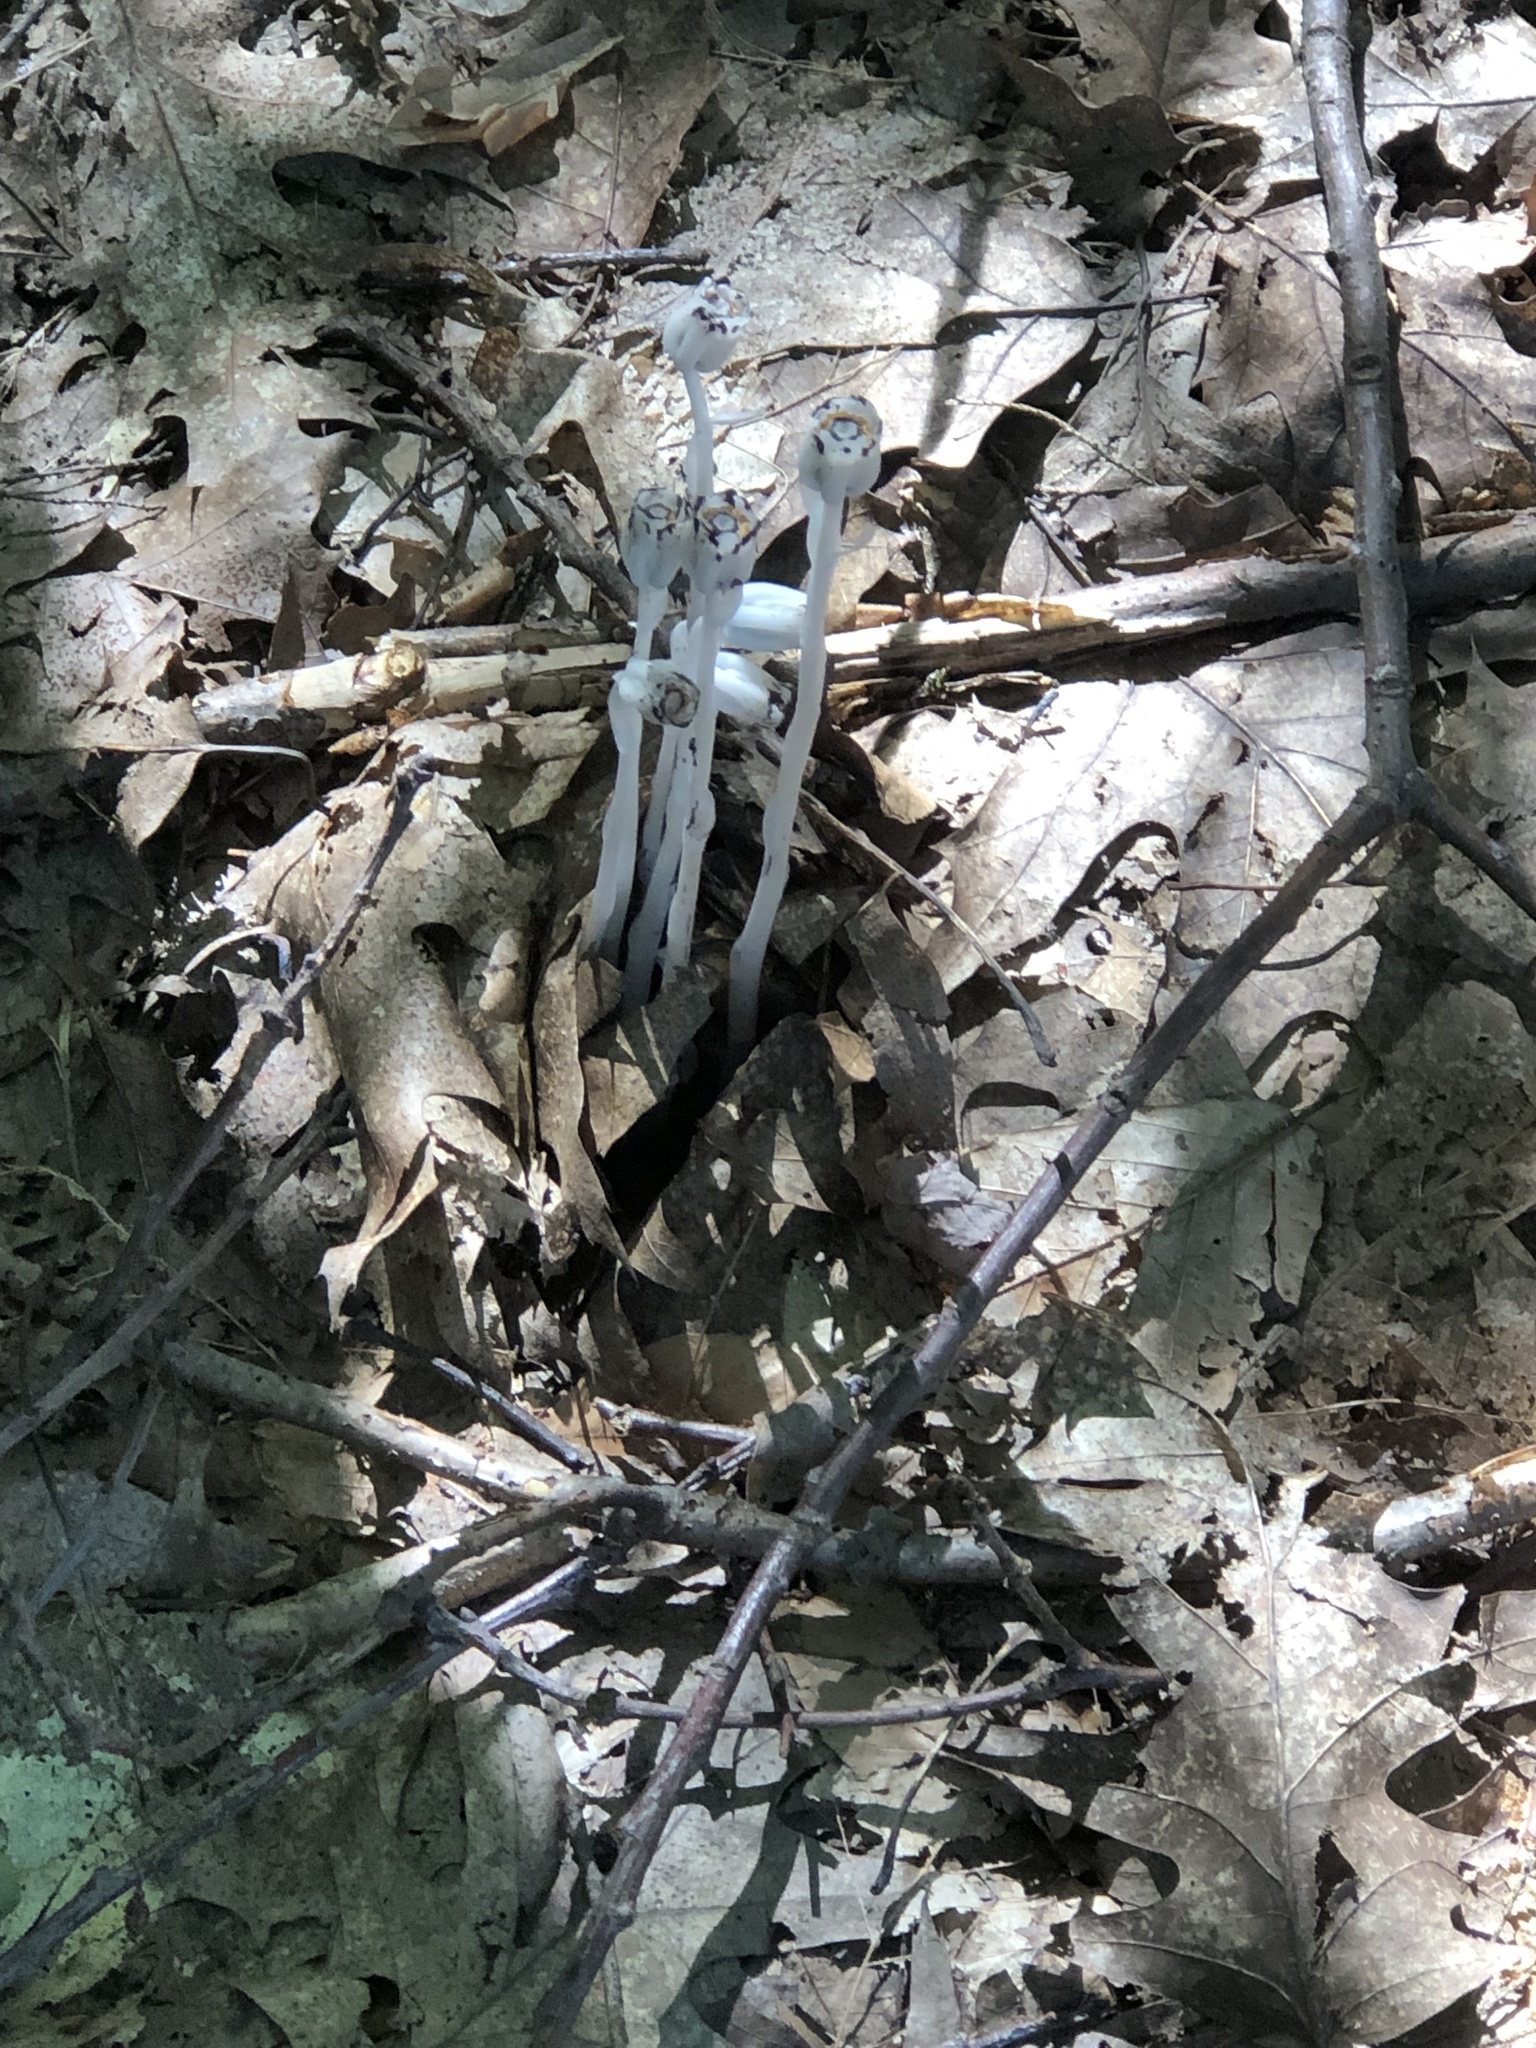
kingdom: Plantae
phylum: Tracheophyta
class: Magnoliopsida
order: Ericales
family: Ericaceae
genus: Monotropa
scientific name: Monotropa uniflora
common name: Convulsion root
